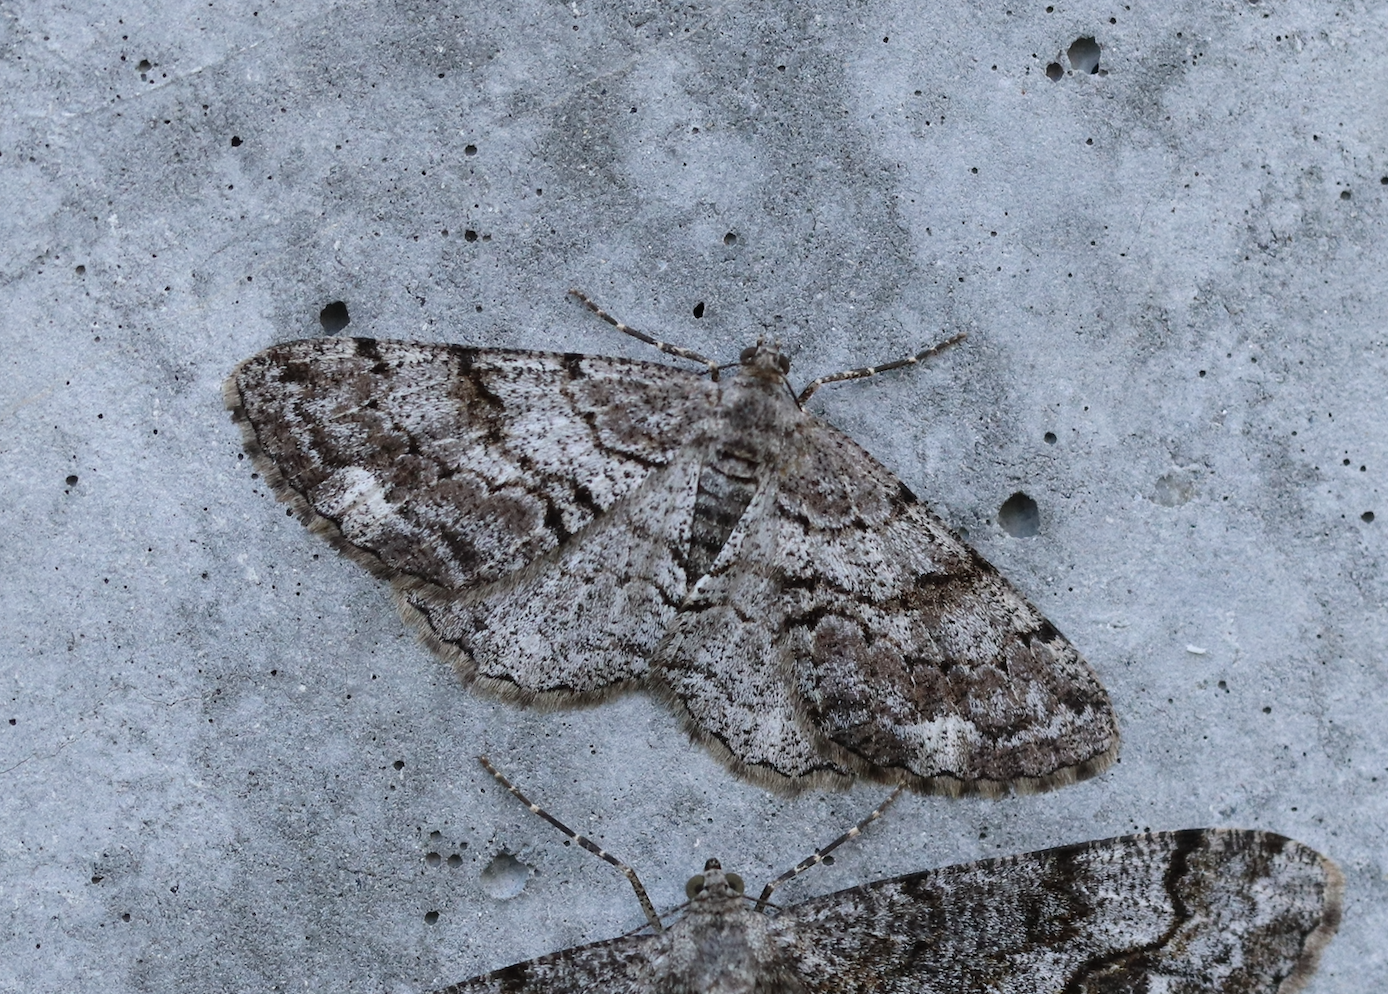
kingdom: Animalia
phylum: Arthropoda
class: Insecta
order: Lepidoptera
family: Geometridae
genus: Peribatodes
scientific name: Peribatodes secundaria
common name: Feathered beauty
